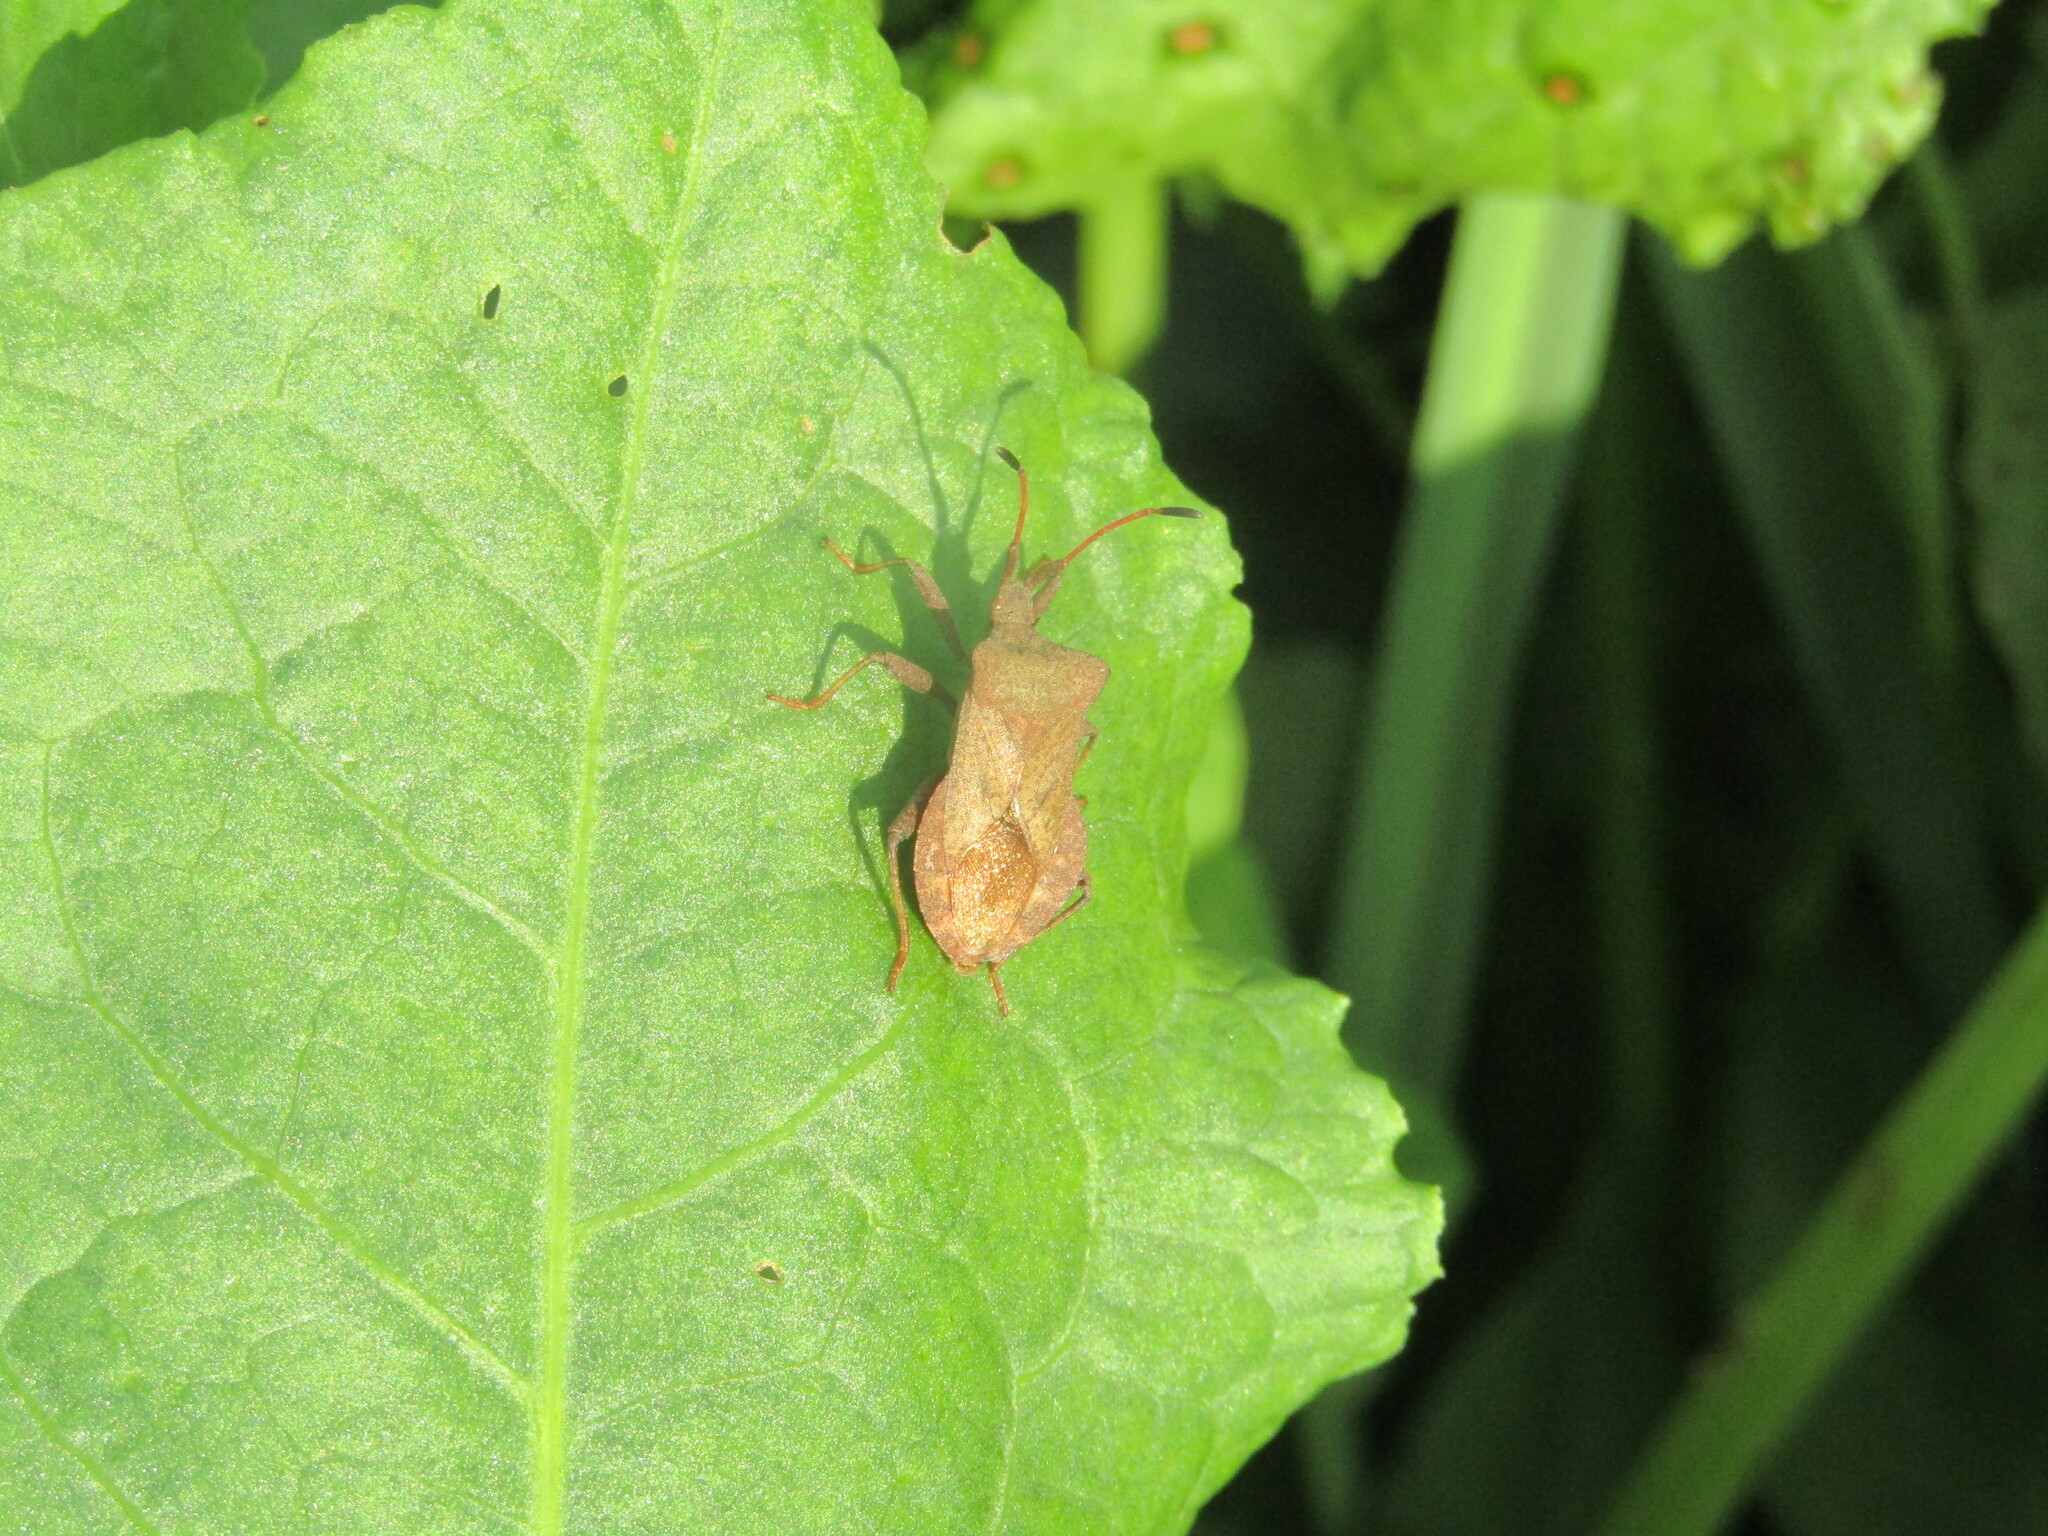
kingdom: Animalia
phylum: Arthropoda
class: Insecta
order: Hemiptera
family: Coreidae
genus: Coreus
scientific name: Coreus marginatus
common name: Dock bug
